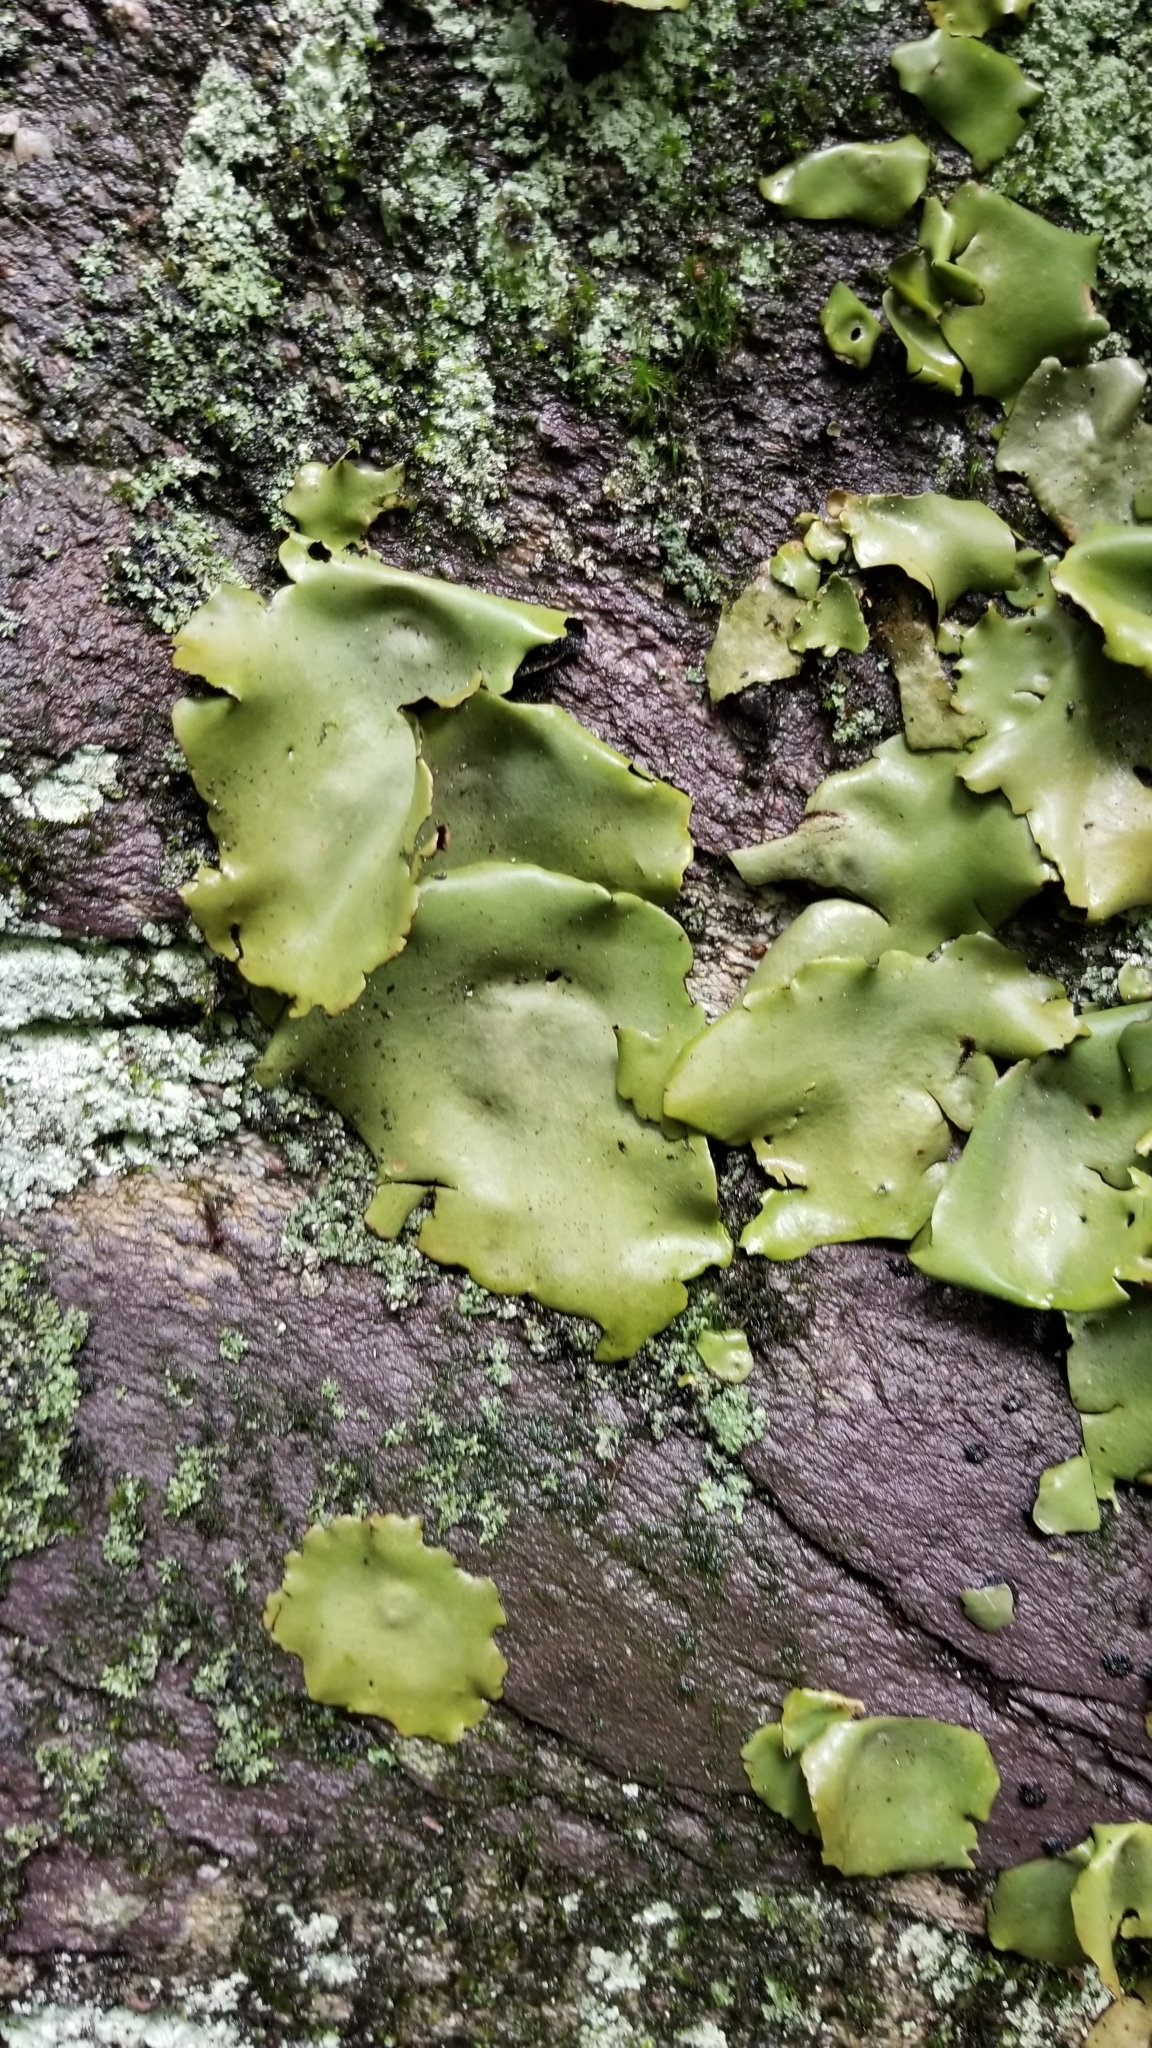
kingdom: Fungi
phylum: Ascomycota
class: Lecanoromycetes
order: Umbilicariales
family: Umbilicariaceae
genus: Umbilicaria
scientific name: Umbilicaria mammulata
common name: Smooth rock tripe
